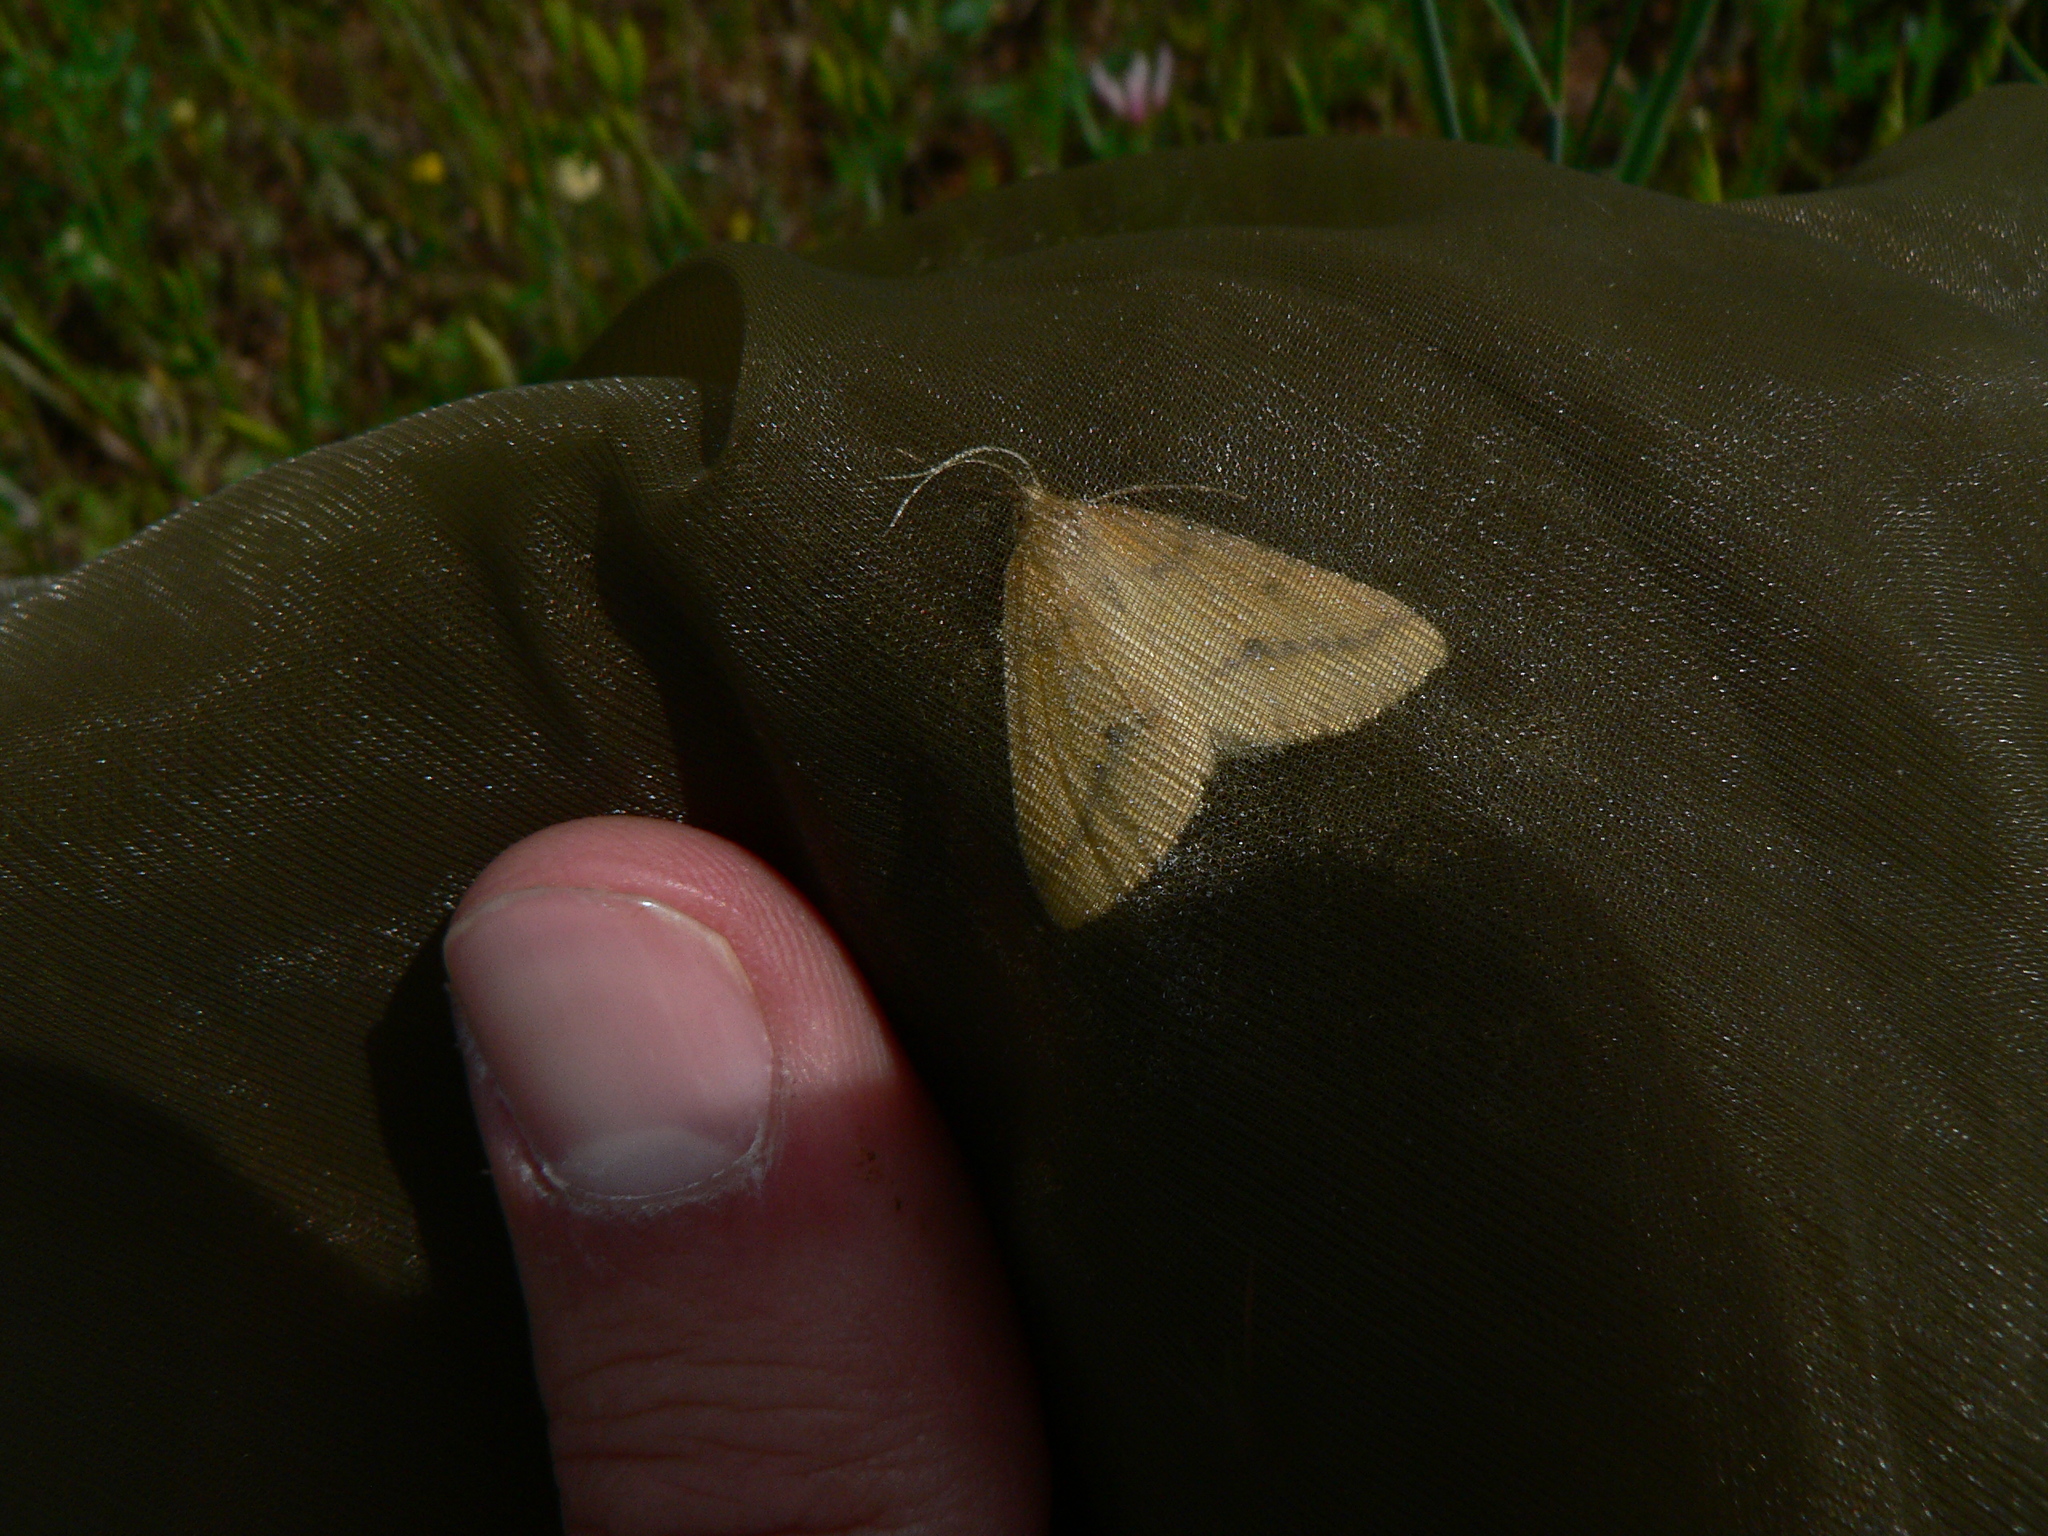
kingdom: Animalia
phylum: Arthropoda
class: Insecta
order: Lepidoptera
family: Geometridae
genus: Aspitates
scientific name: Aspitates ochrearia
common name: Yellow belle
